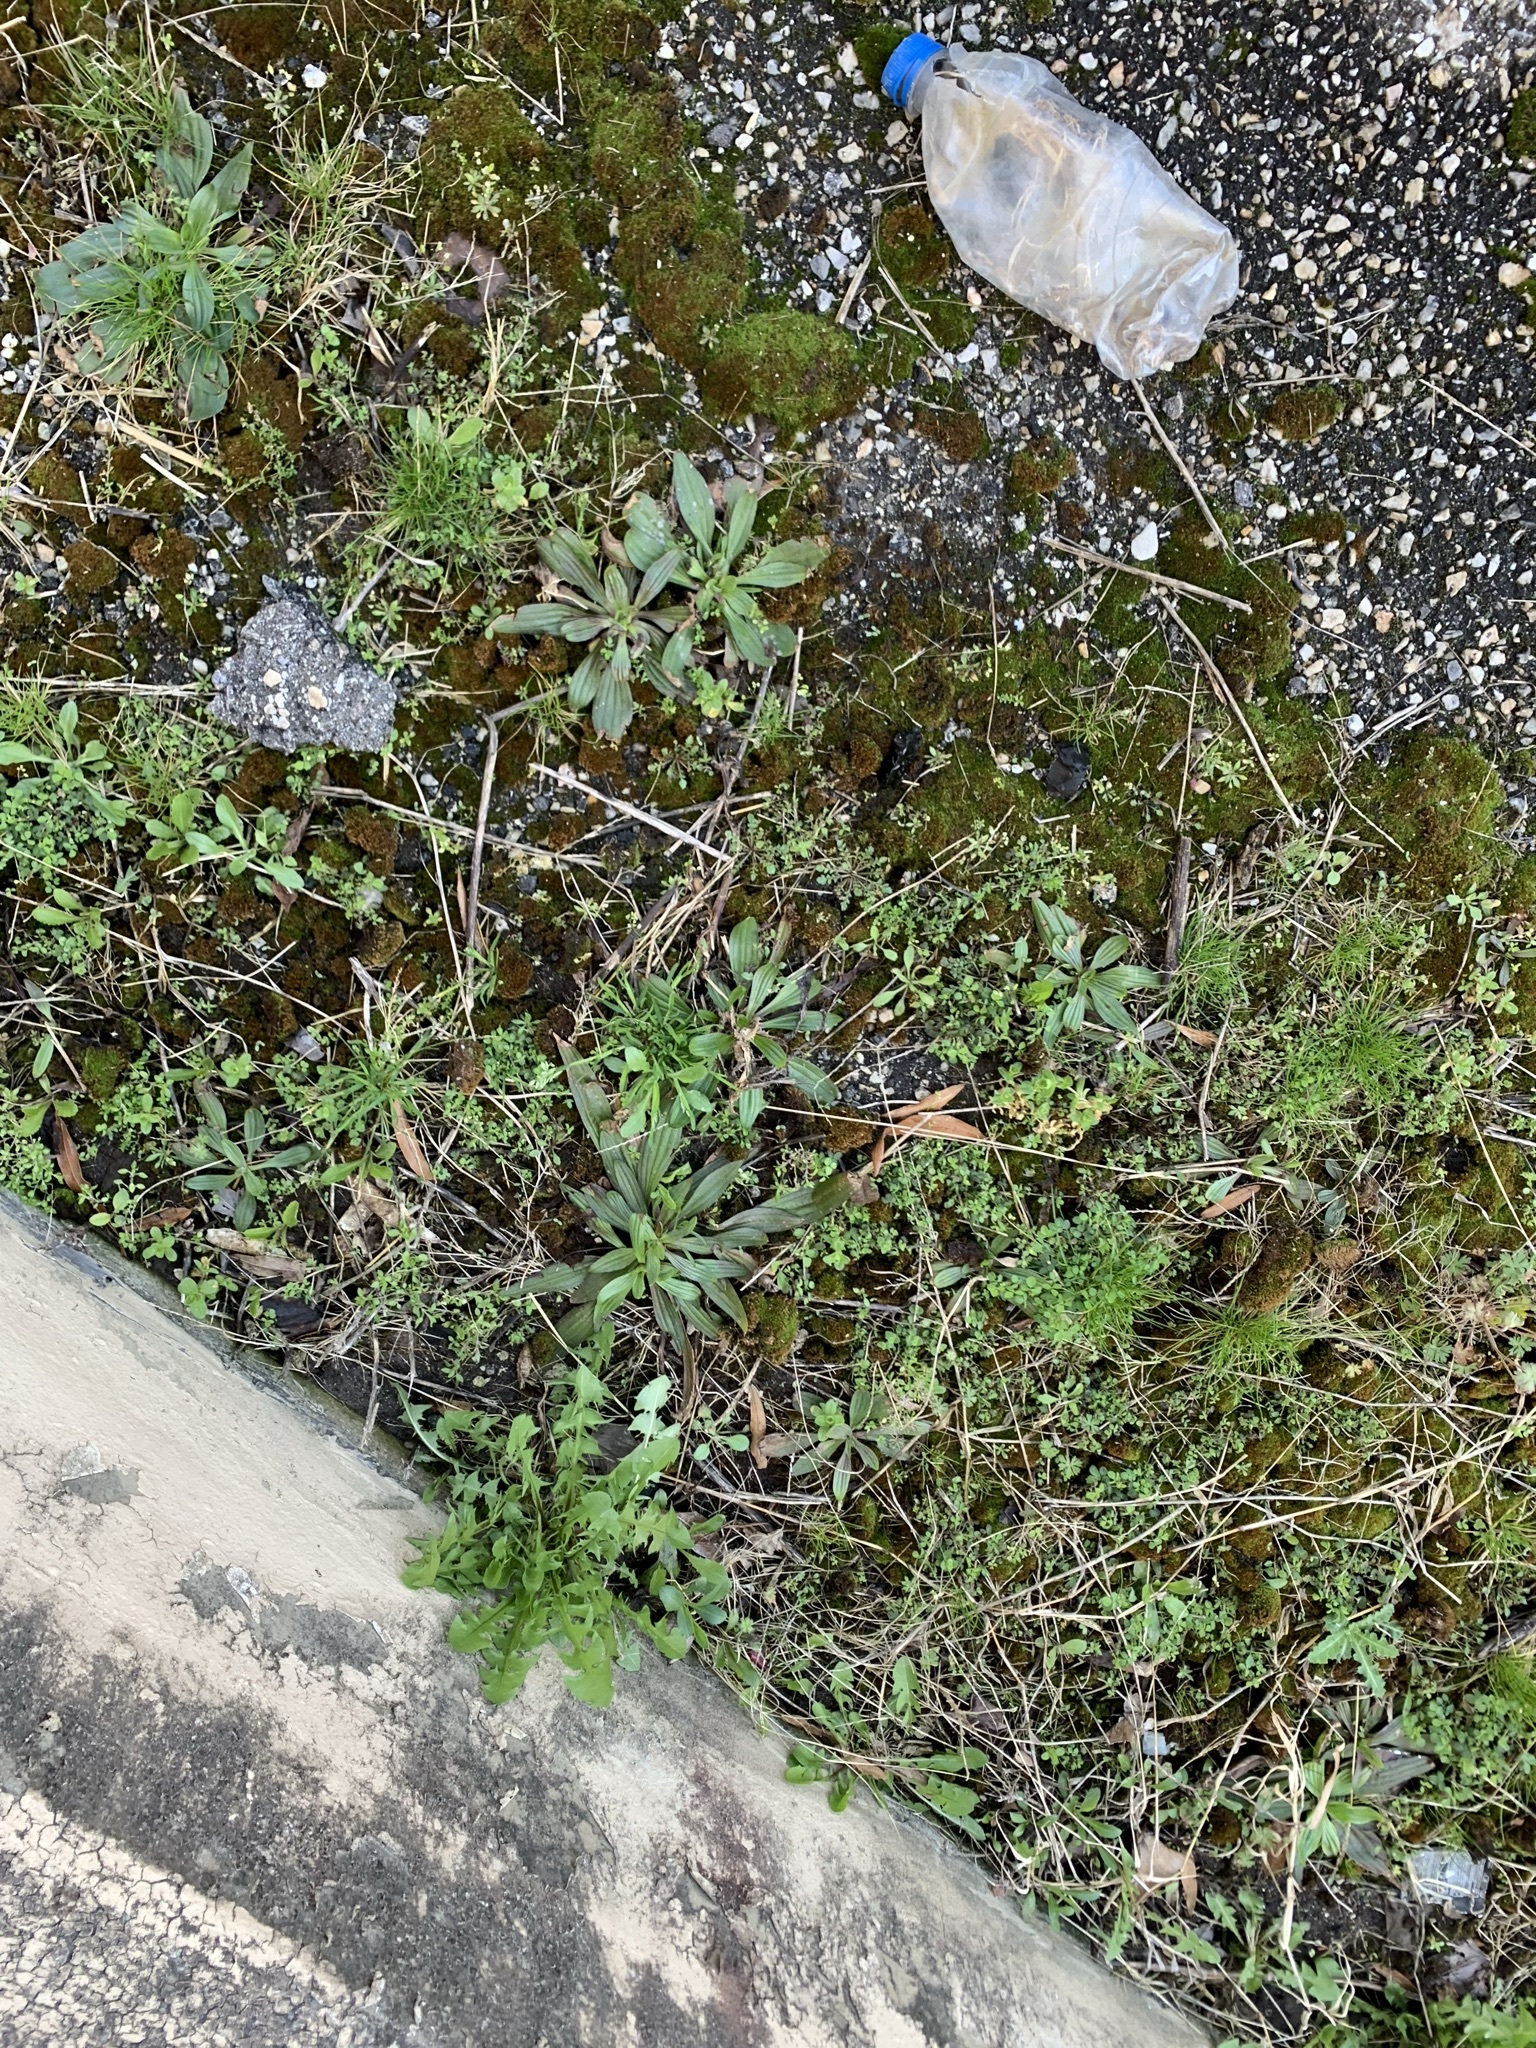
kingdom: Plantae
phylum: Tracheophyta
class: Magnoliopsida
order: Lamiales
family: Plantaginaceae
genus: Plantago
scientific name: Plantago lanceolata
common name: Ribwort plantain
